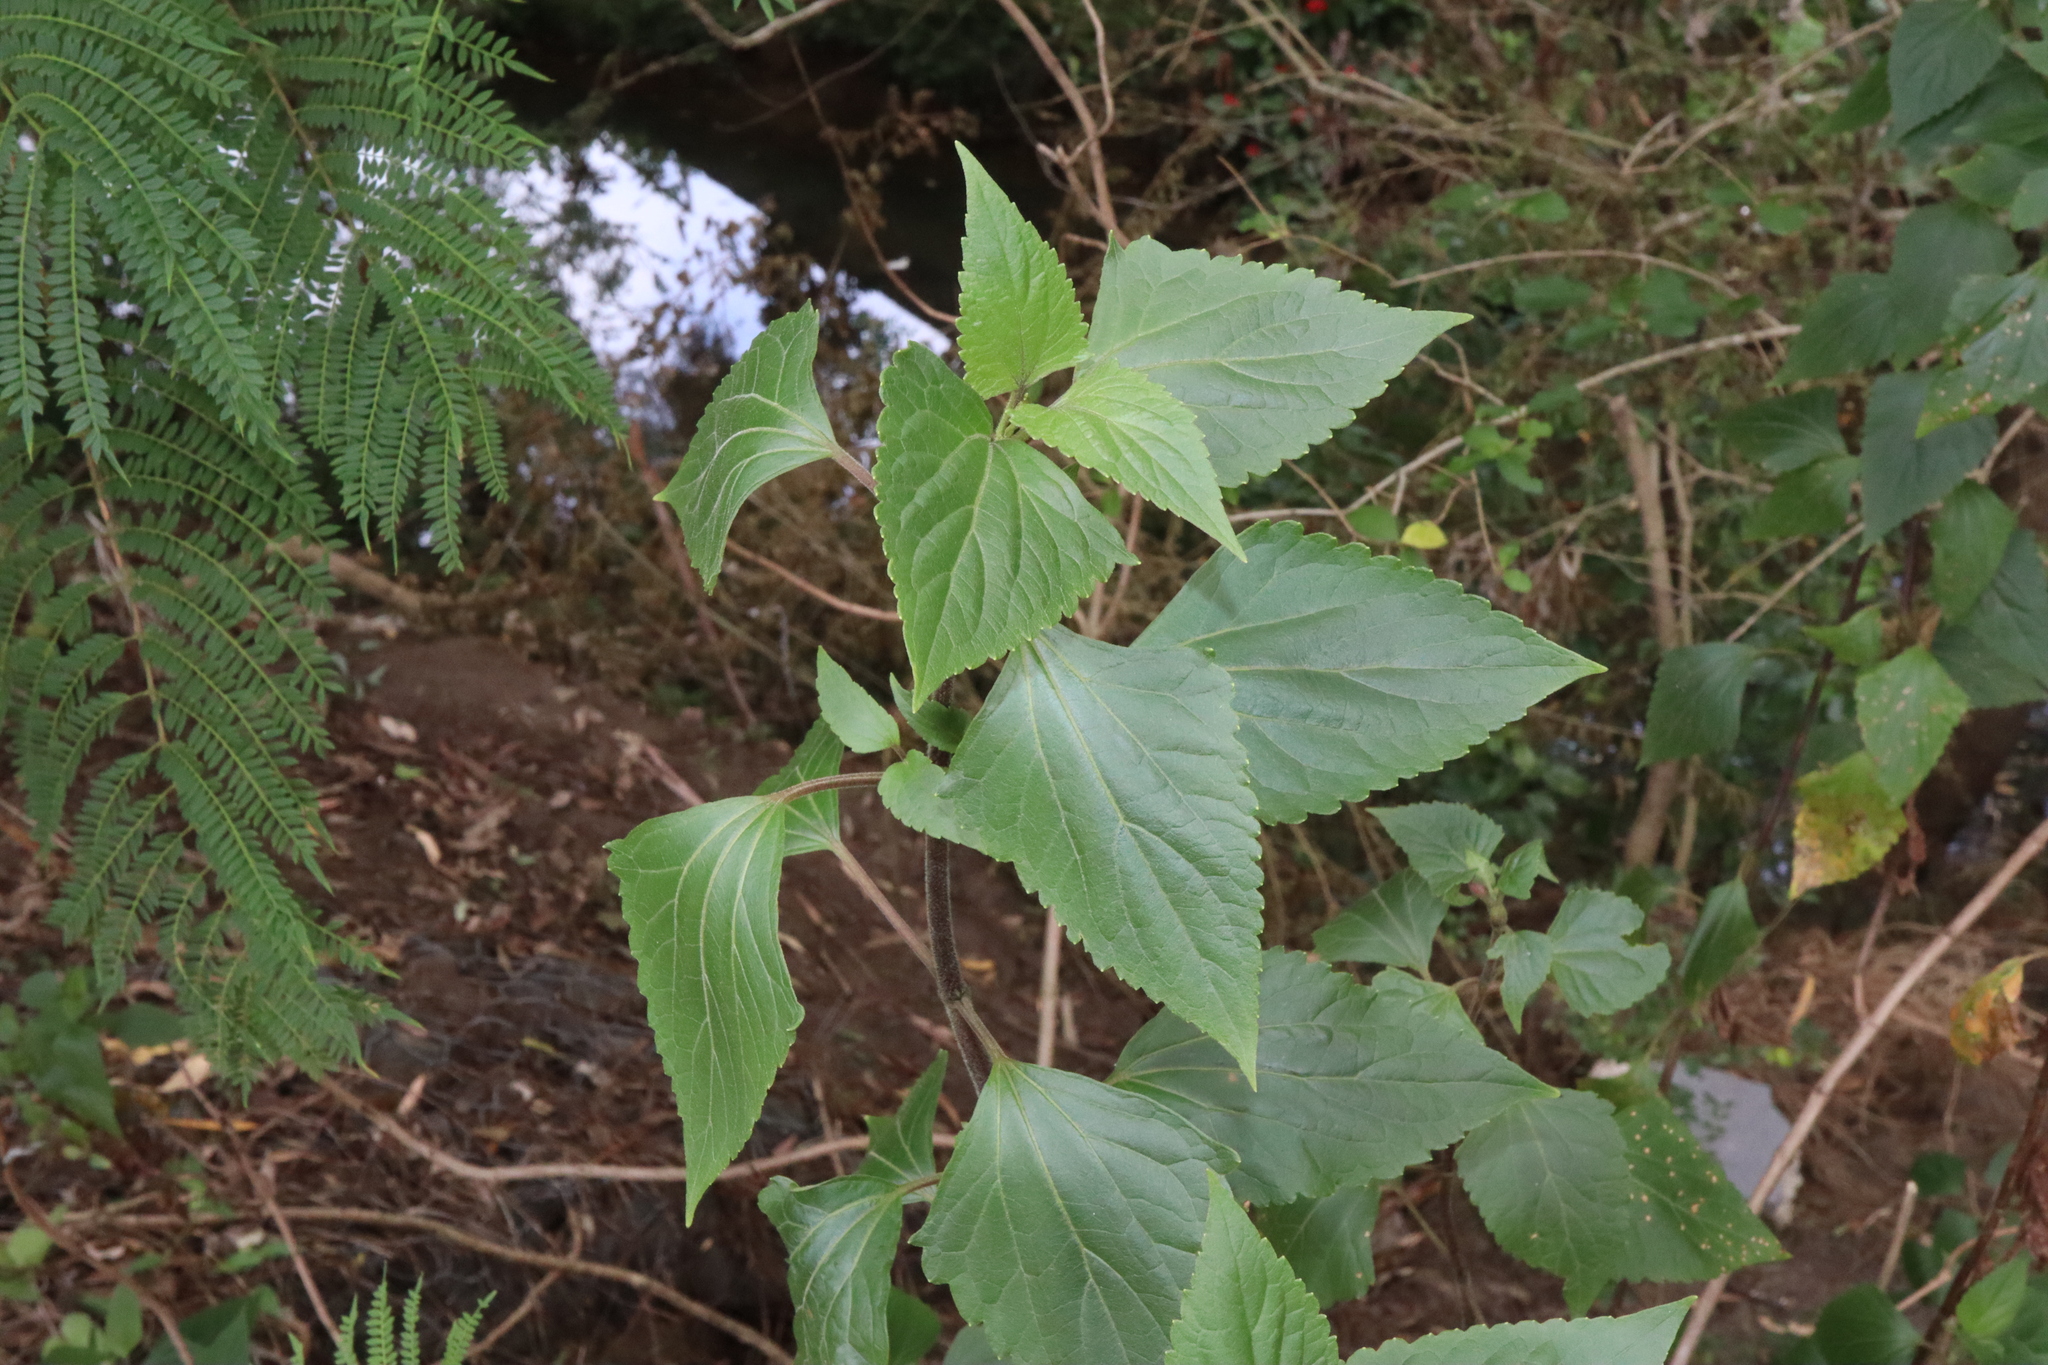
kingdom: Plantae
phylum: Tracheophyta
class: Magnoliopsida
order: Asterales
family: Asteraceae
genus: Ageratina
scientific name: Ageratina adenophora
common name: Sticky snakeroot
